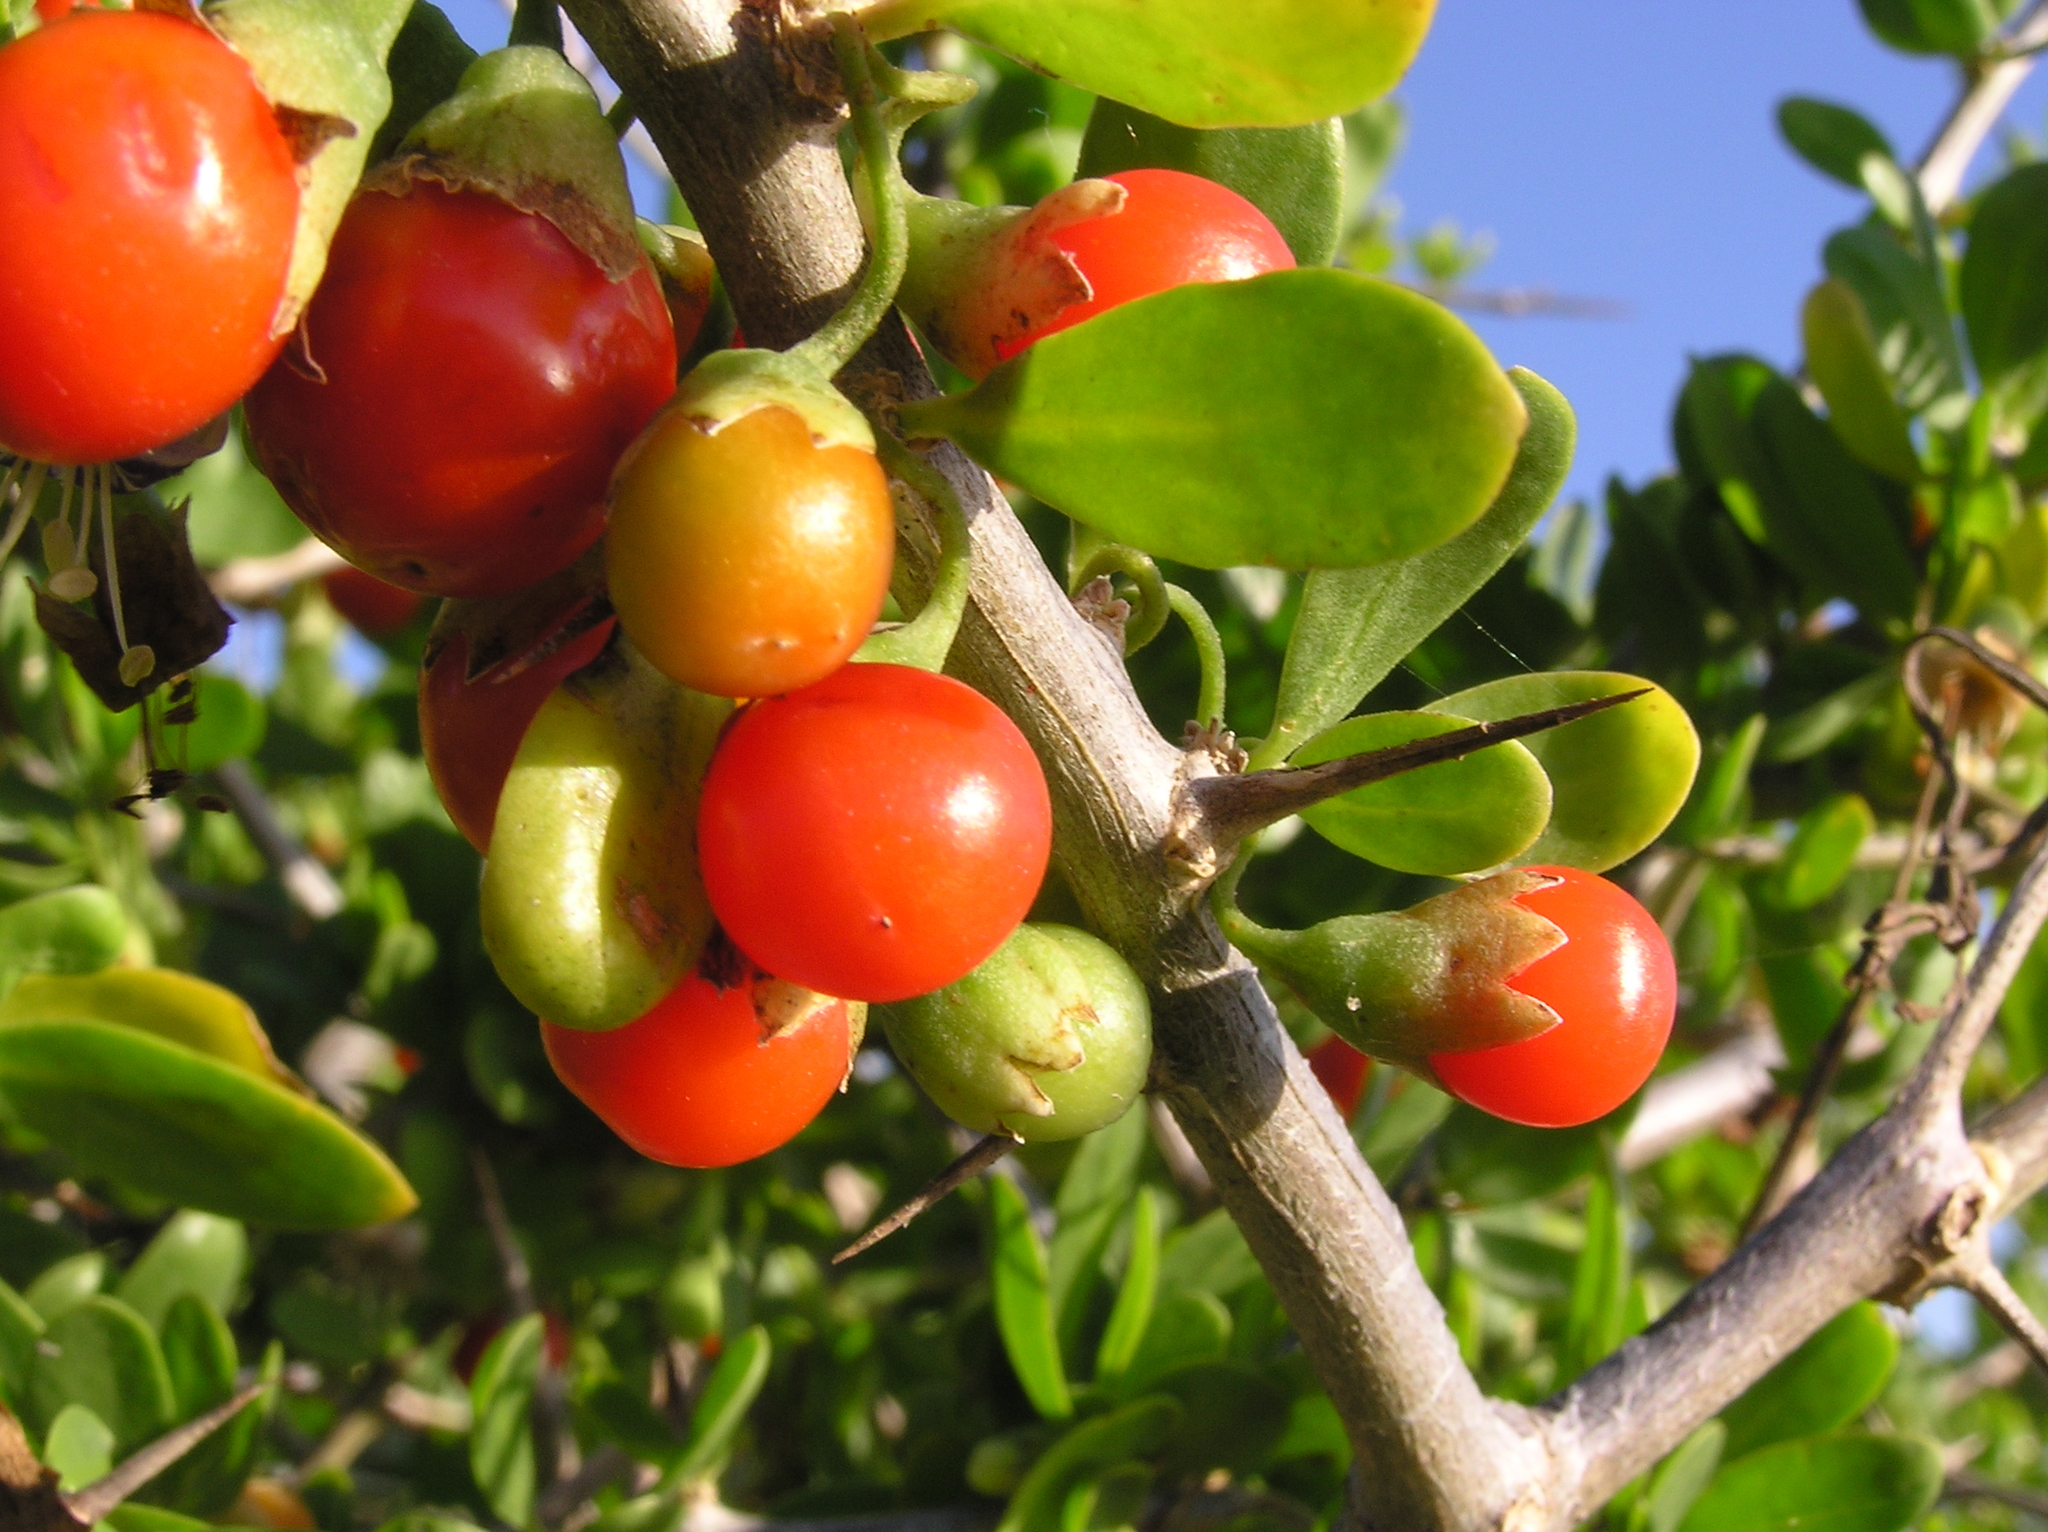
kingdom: Plantae
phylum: Tracheophyta
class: Magnoliopsida
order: Solanales
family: Solanaceae
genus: Lycium
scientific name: Lycium ferocissimum
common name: African boxthorn
